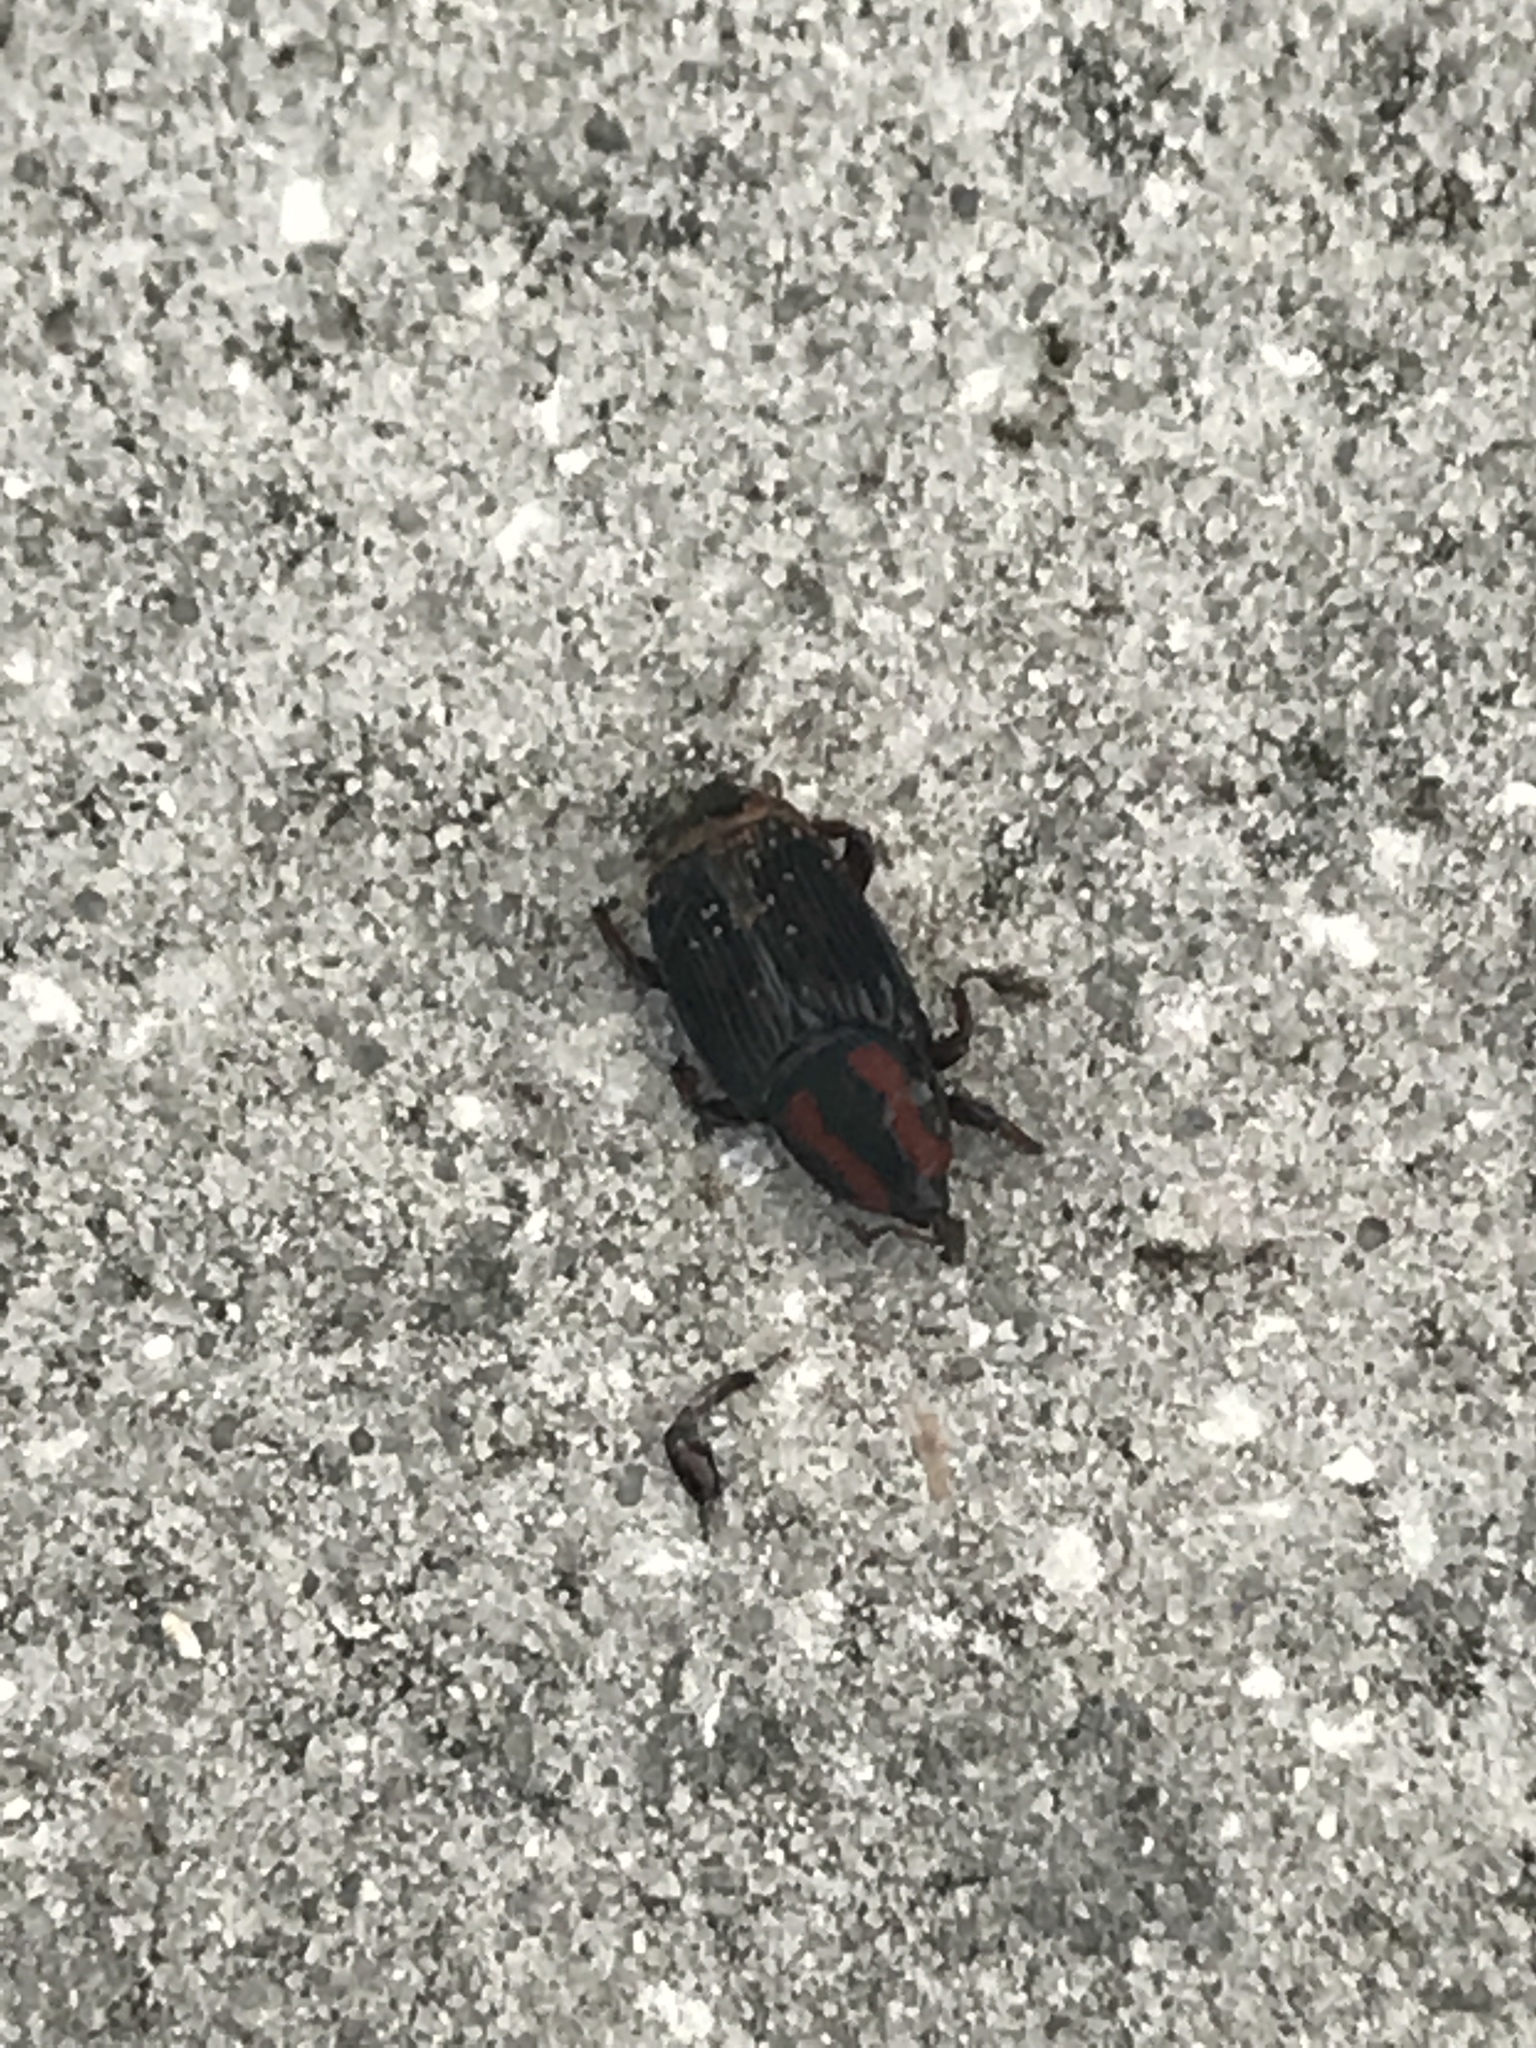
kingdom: Animalia
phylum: Arthropoda
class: Insecta
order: Coleoptera
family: Dryophthoridae
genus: Rhynchophorus
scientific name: Rhynchophorus cruentatus
